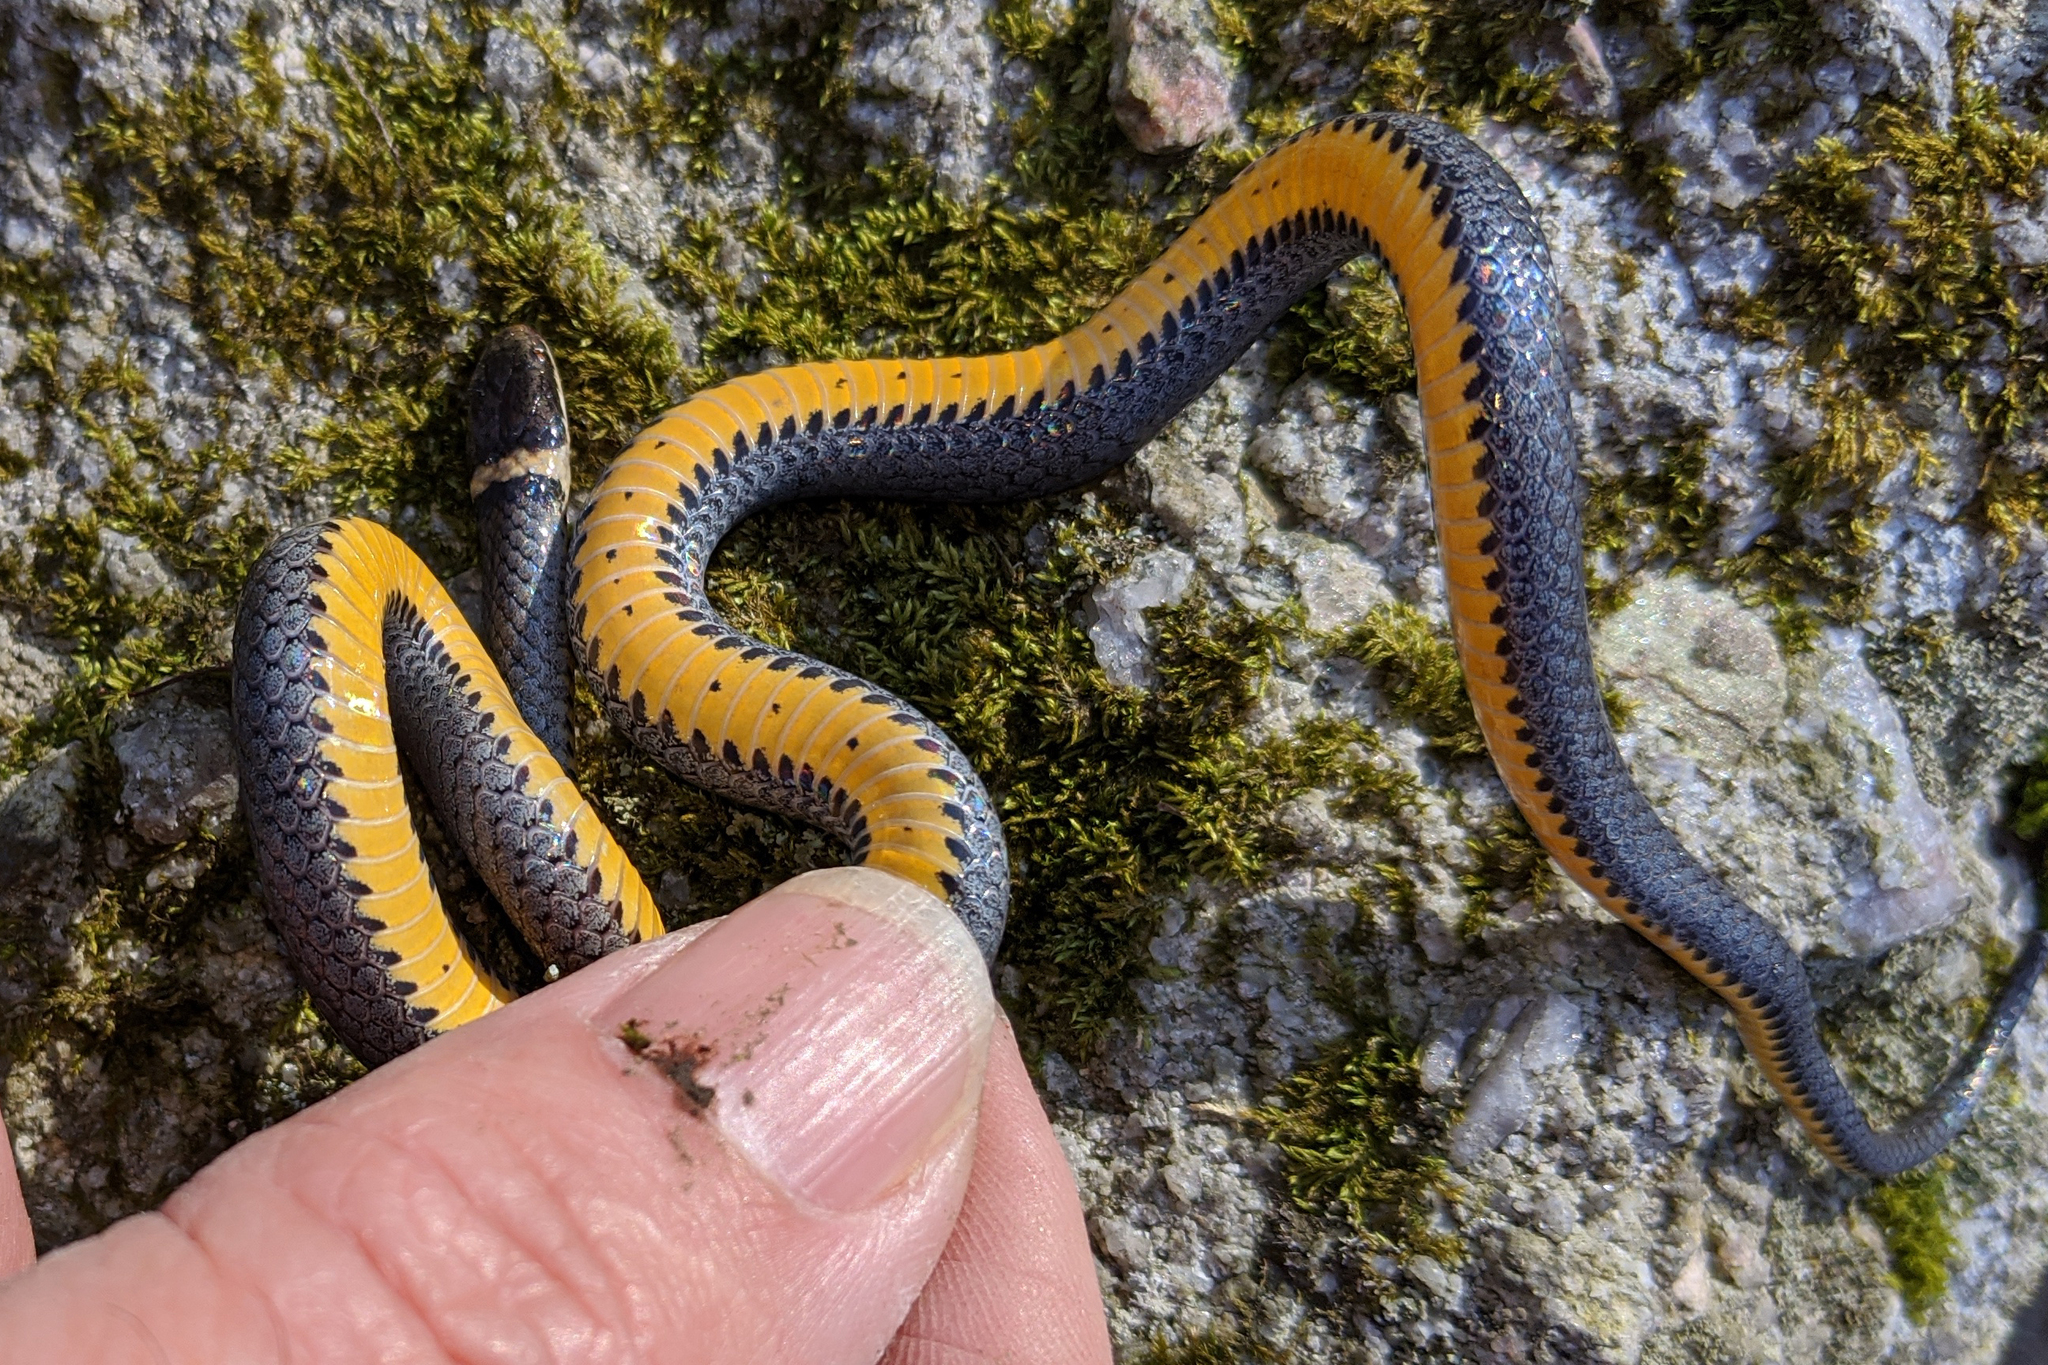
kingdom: Animalia
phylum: Chordata
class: Squamata
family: Colubridae
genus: Diadophis
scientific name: Diadophis punctatus
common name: Ringneck snake
